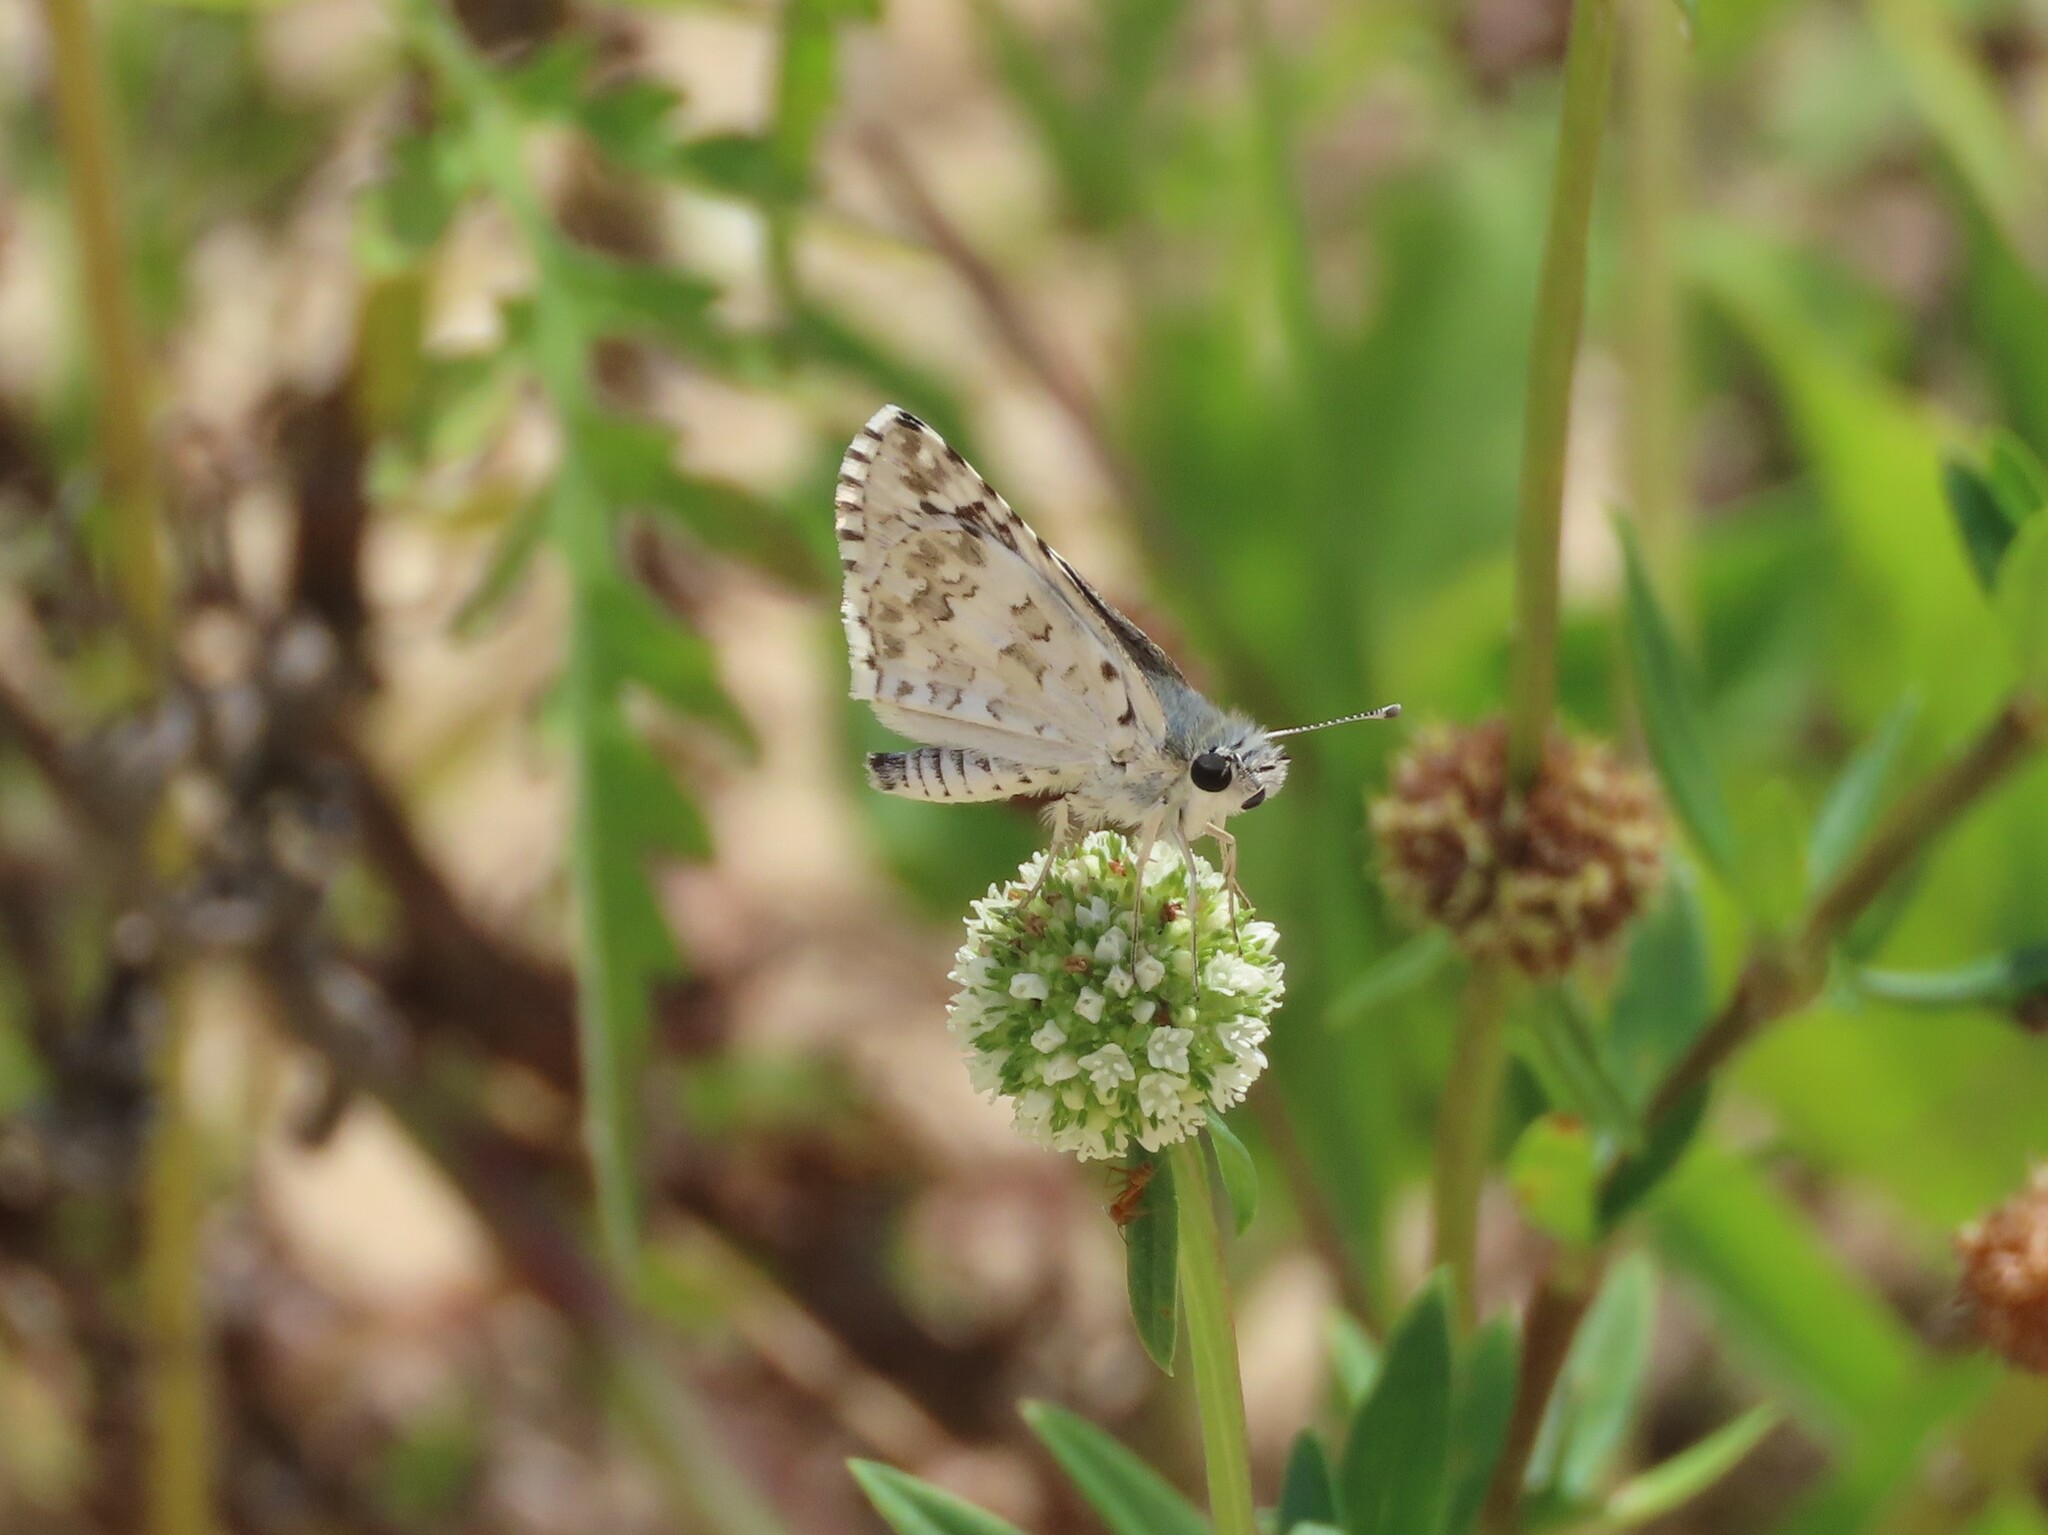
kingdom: Animalia
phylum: Arthropoda
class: Insecta
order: Lepidoptera
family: Hesperiidae
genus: Burnsius
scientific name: Burnsius albezens
